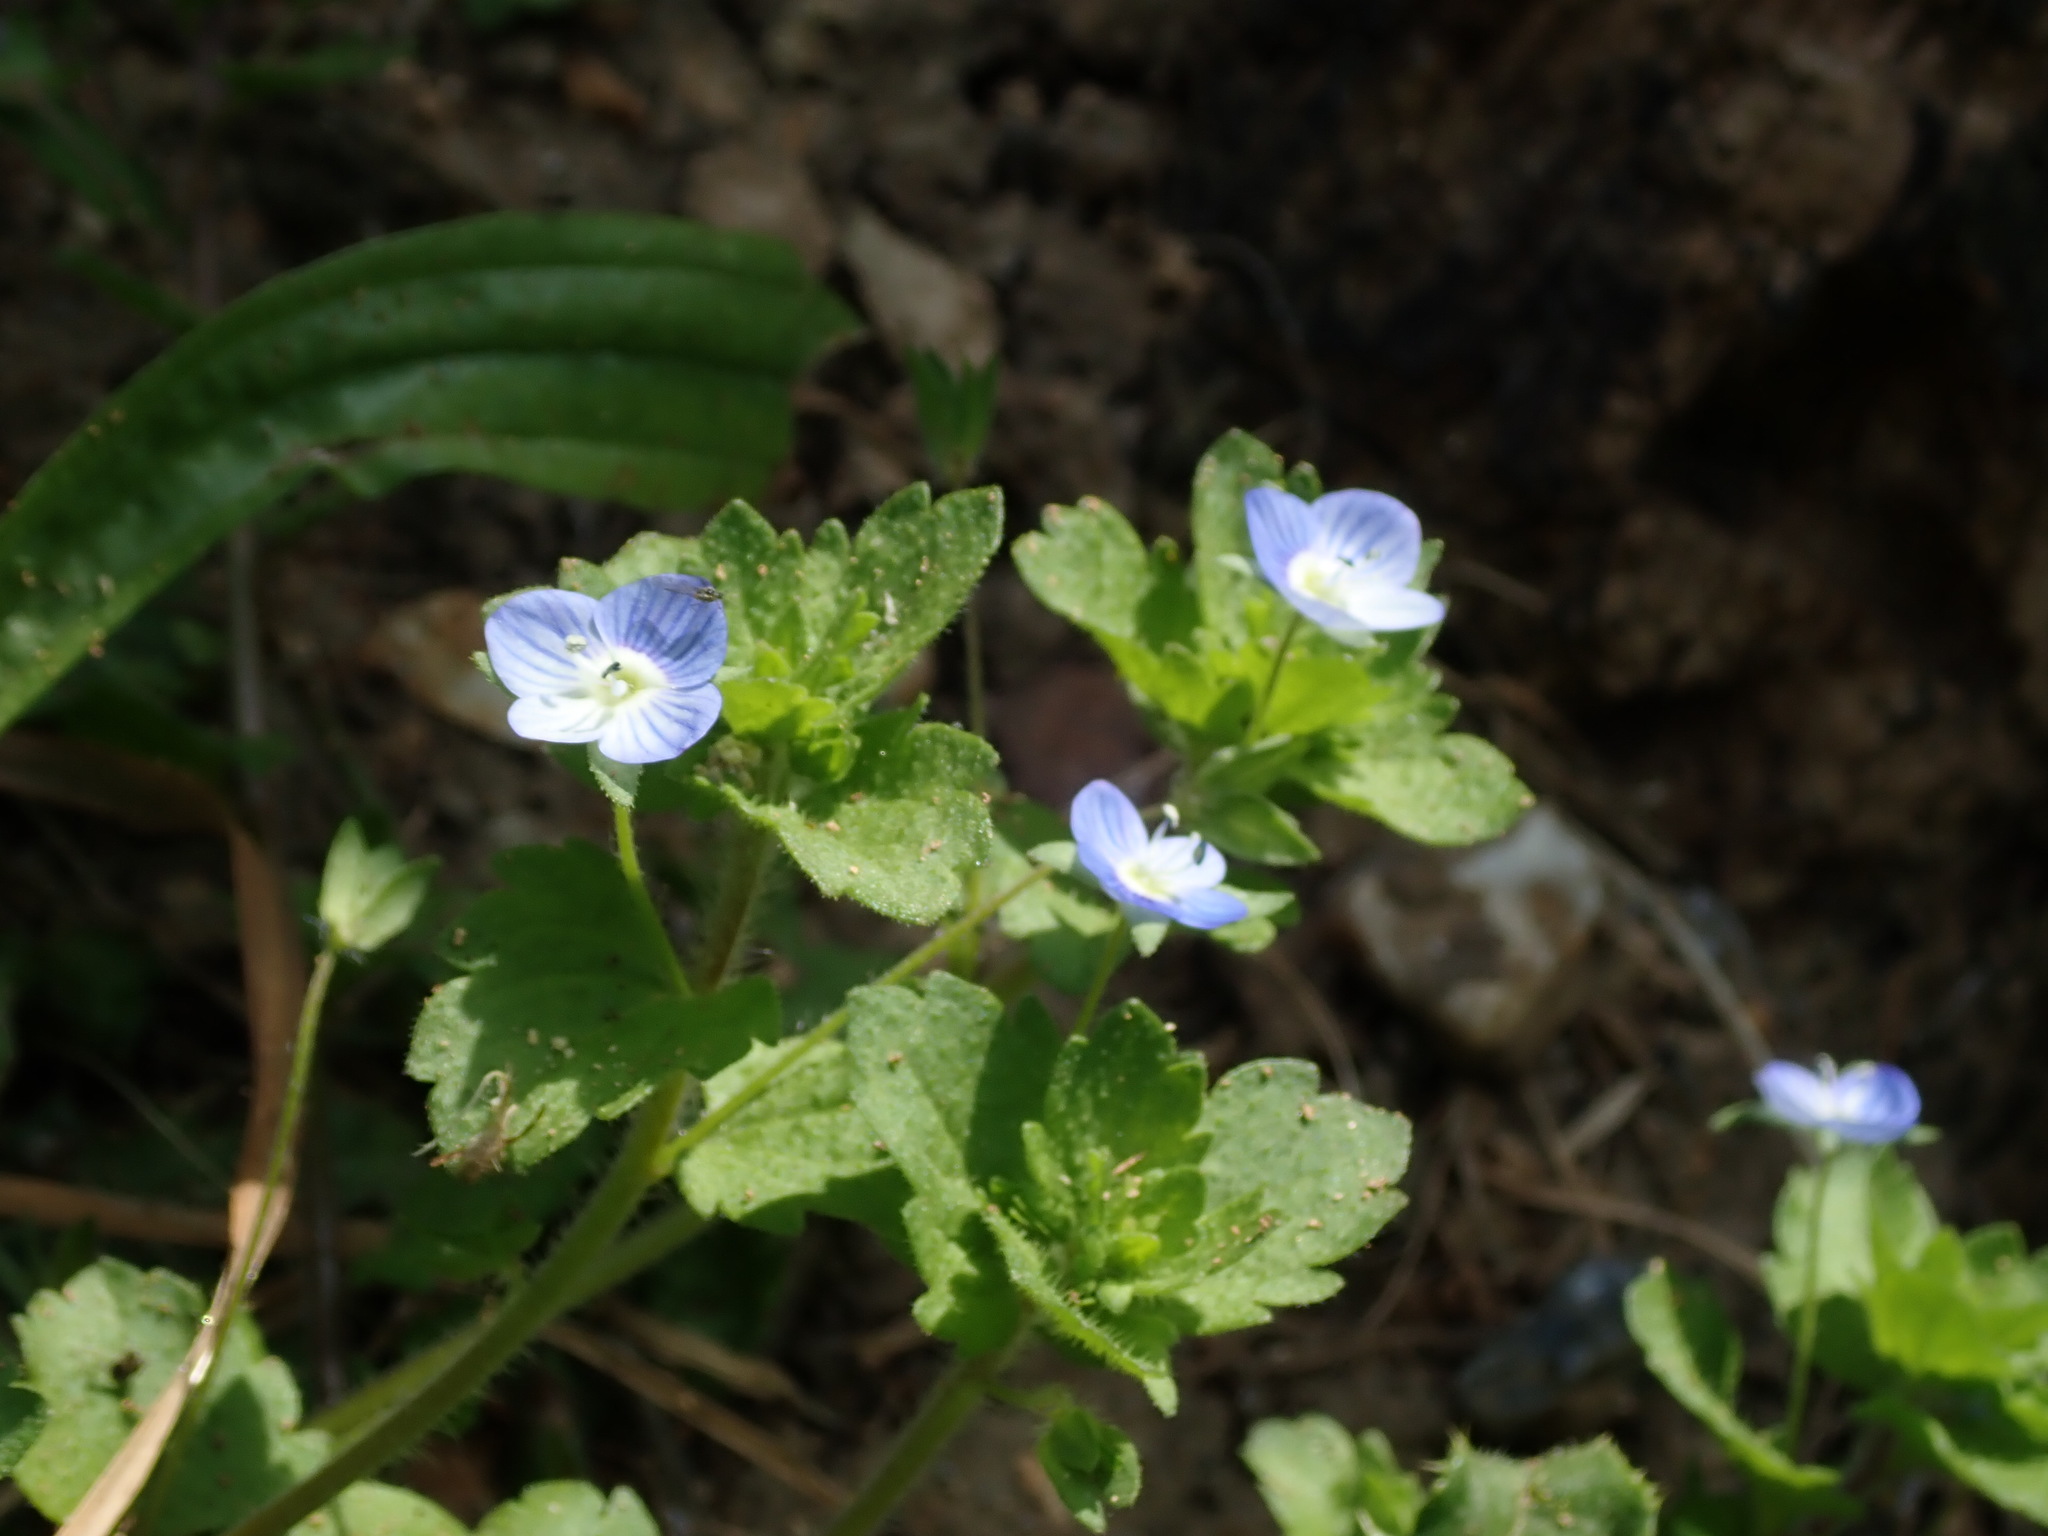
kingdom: Plantae
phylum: Tracheophyta
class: Magnoliopsida
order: Lamiales
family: Plantaginaceae
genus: Veronica
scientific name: Veronica persica
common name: Common field-speedwell
